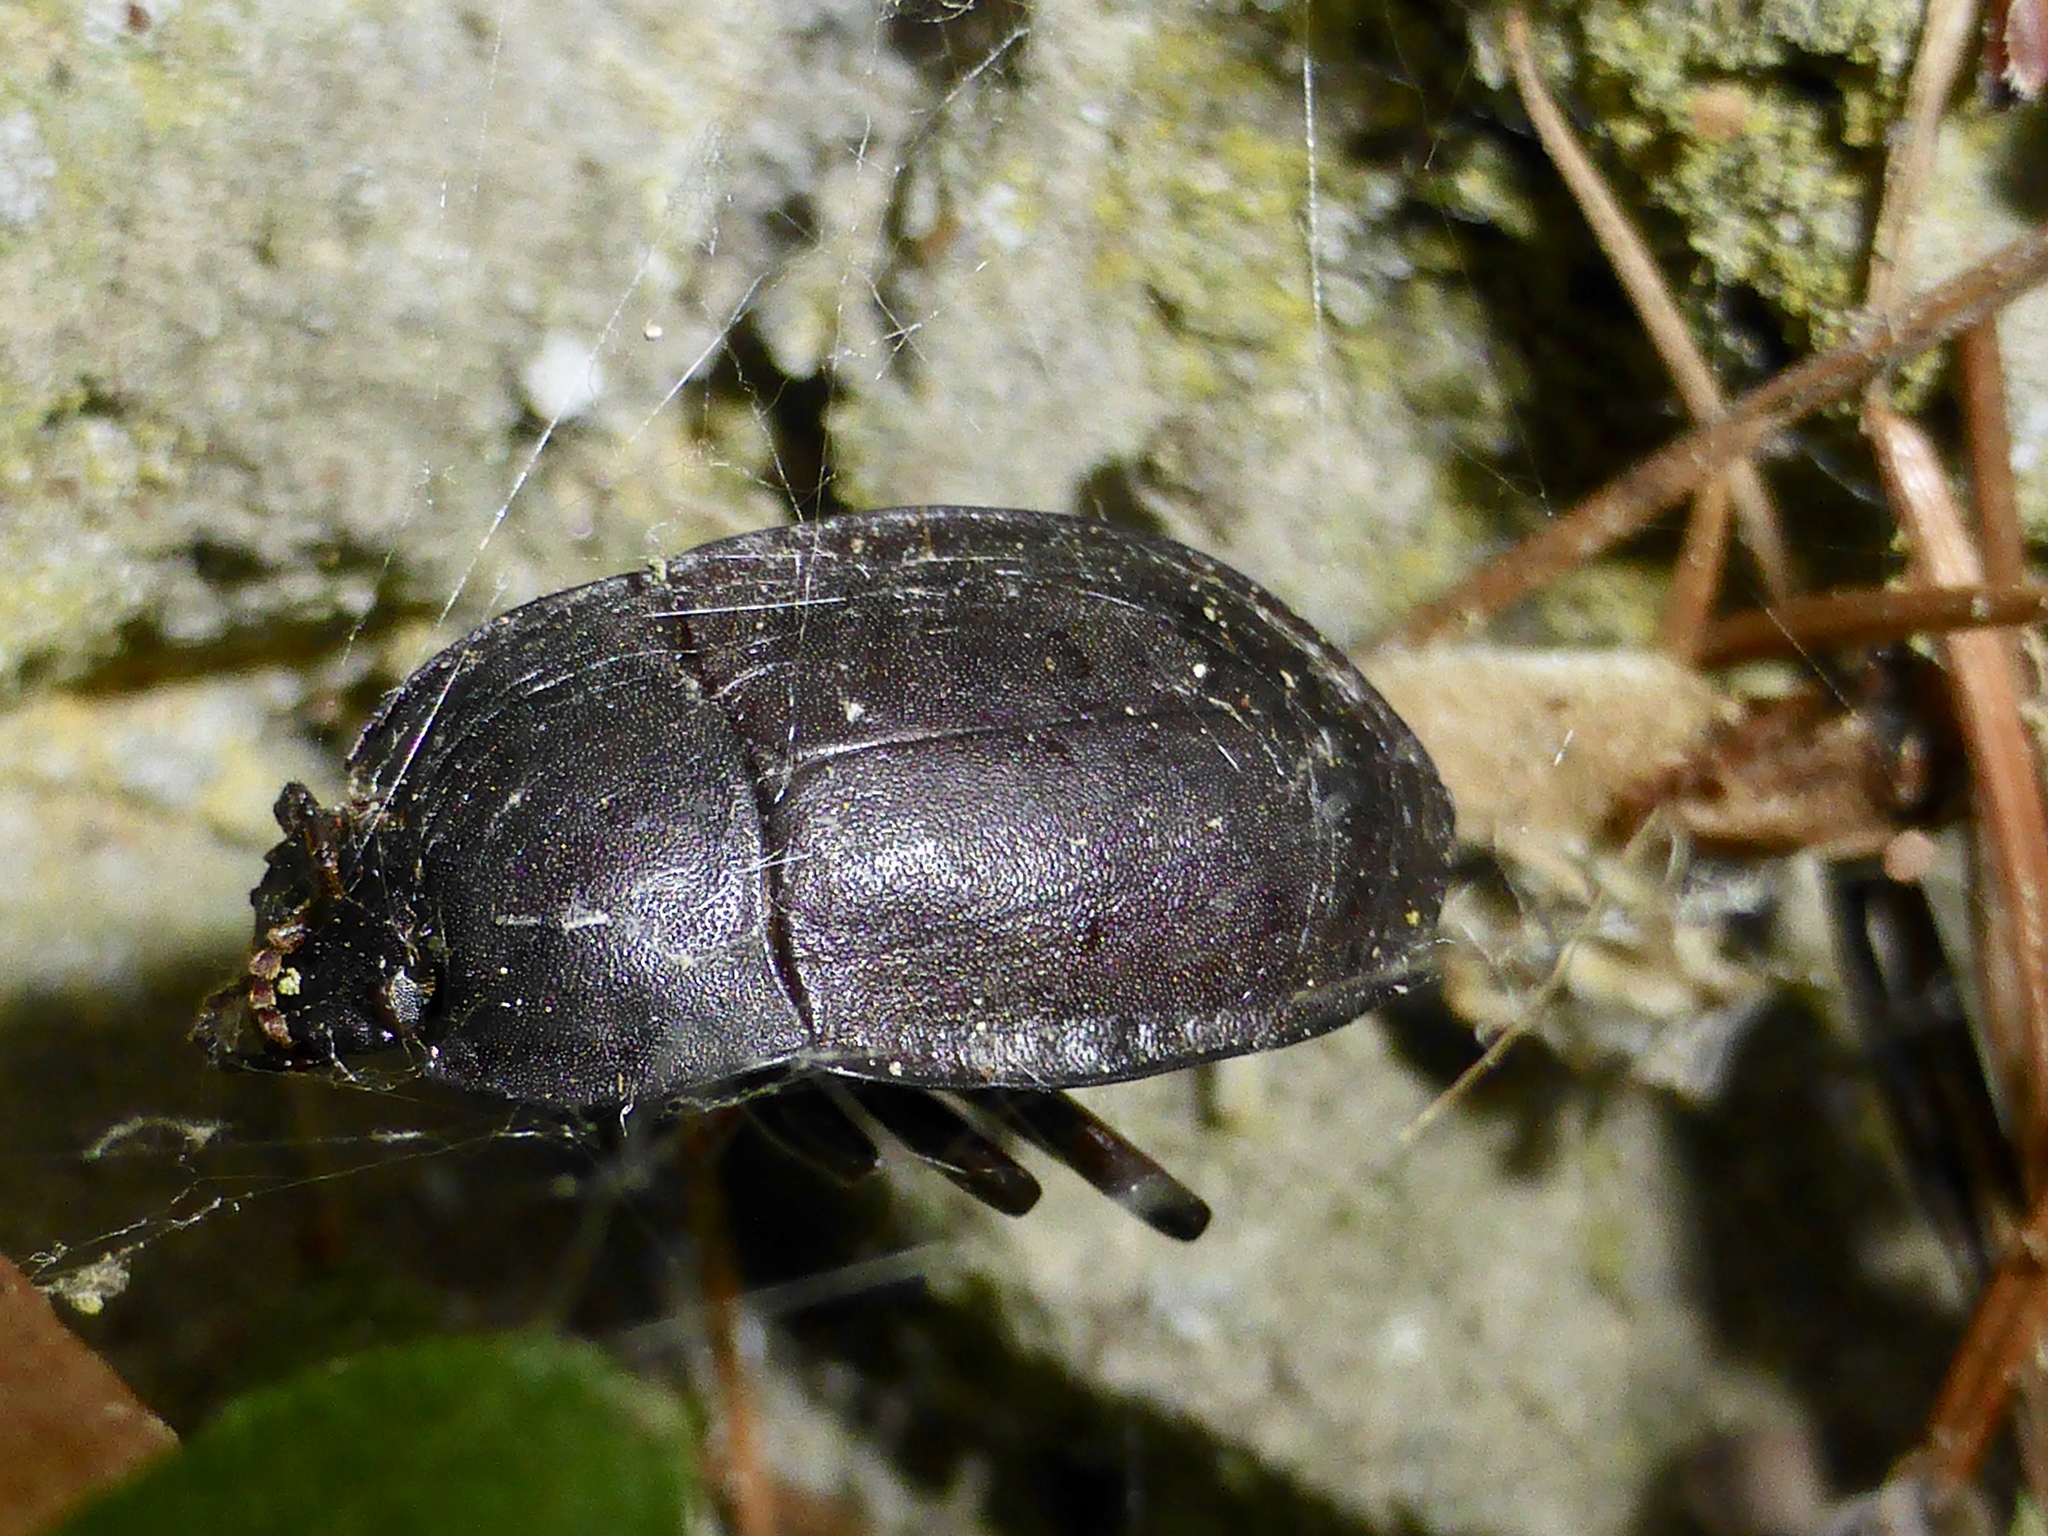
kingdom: Animalia
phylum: Arthropoda
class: Insecta
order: Coleoptera
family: Tenebrionidae
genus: Mimopeus
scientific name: Mimopeus
